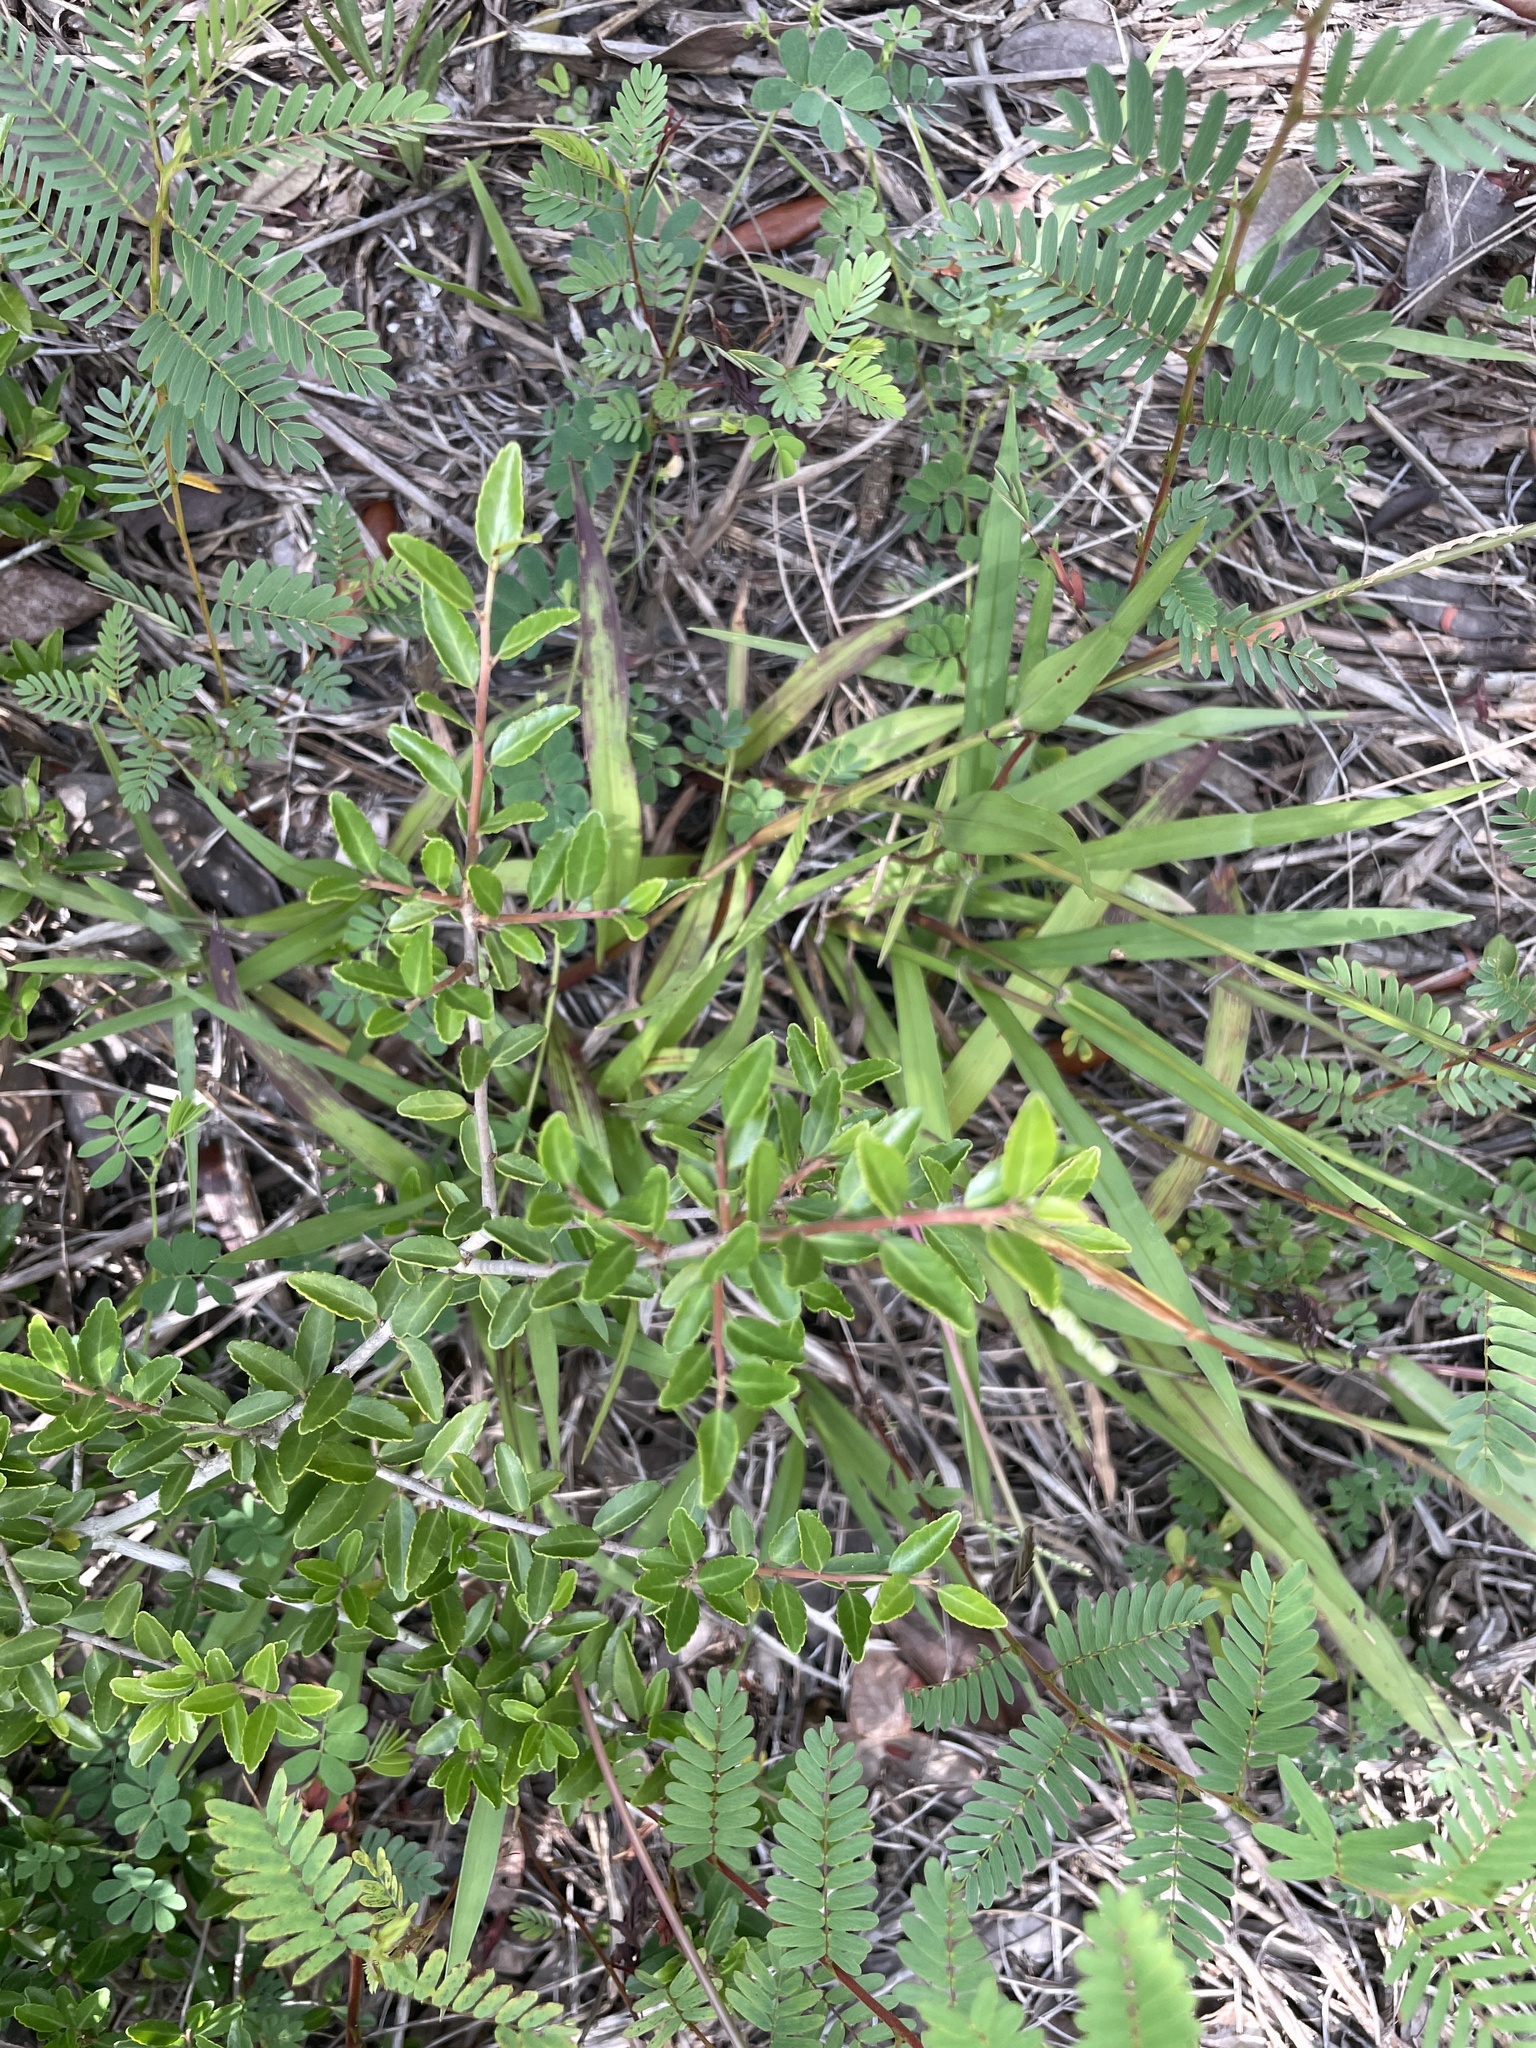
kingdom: Plantae
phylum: Tracheophyta
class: Liliopsida
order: Poales
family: Poaceae
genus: Paspalum
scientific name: Paspalum setaceum
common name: Slender paspalum
